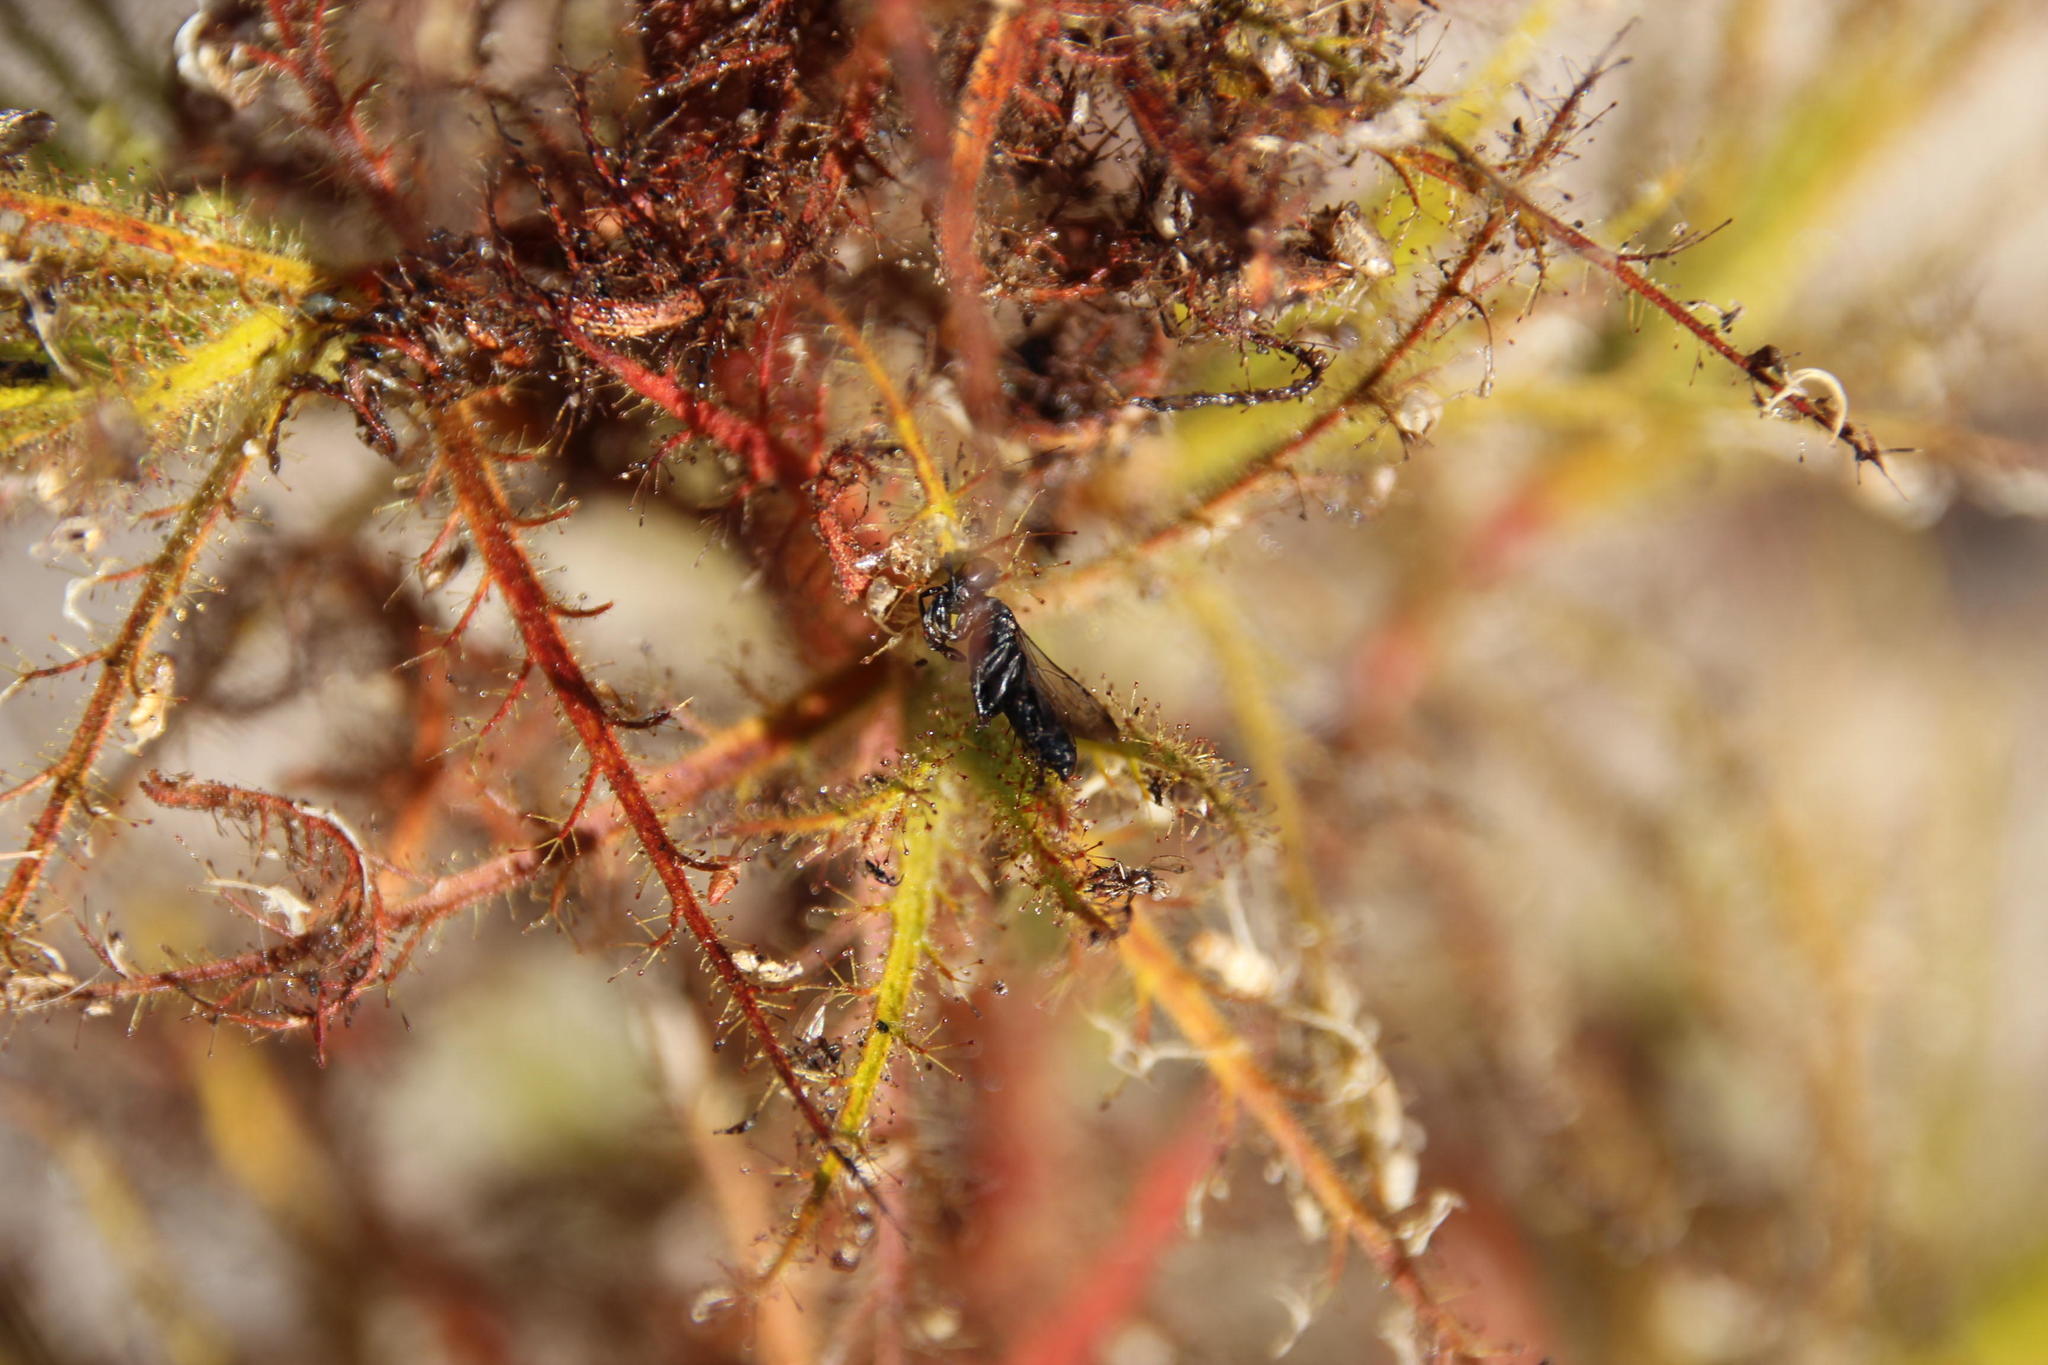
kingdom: Animalia
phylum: Arthropoda
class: Insecta
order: Hemiptera
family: Miridae
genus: Pameridea
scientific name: Pameridea marlothi
